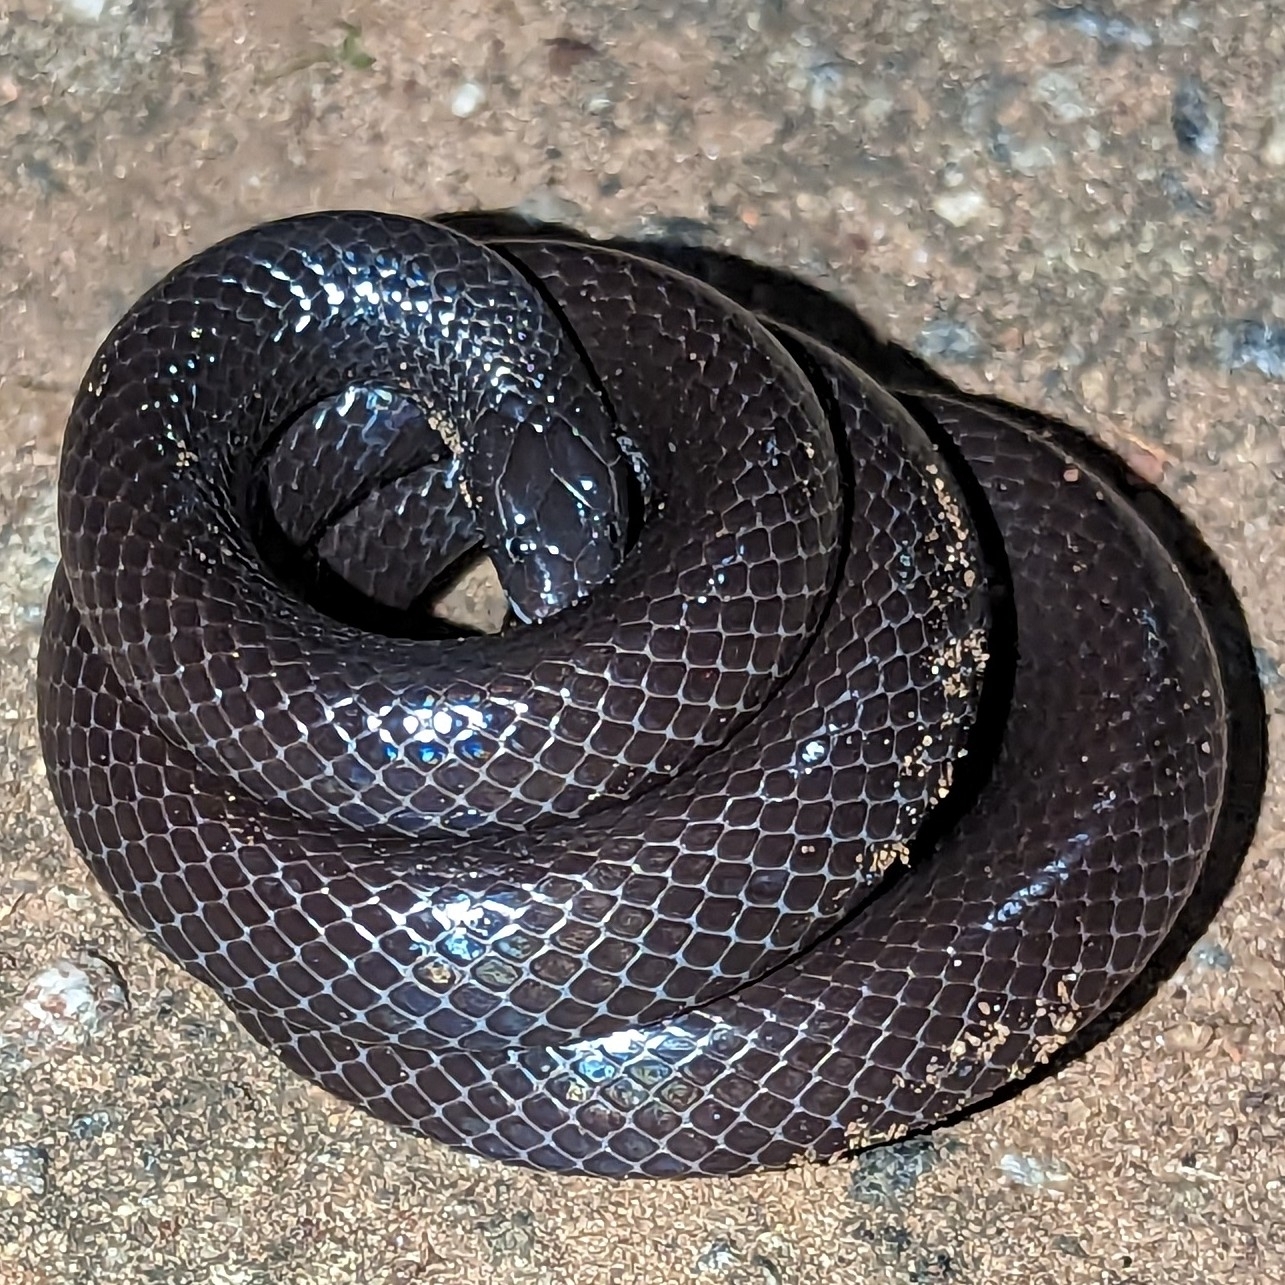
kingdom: Animalia
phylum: Chordata
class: Squamata
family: Atractaspididae
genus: Amblyodipsas
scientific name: Amblyodipsas unicolor
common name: Dull purple-glossed snake
